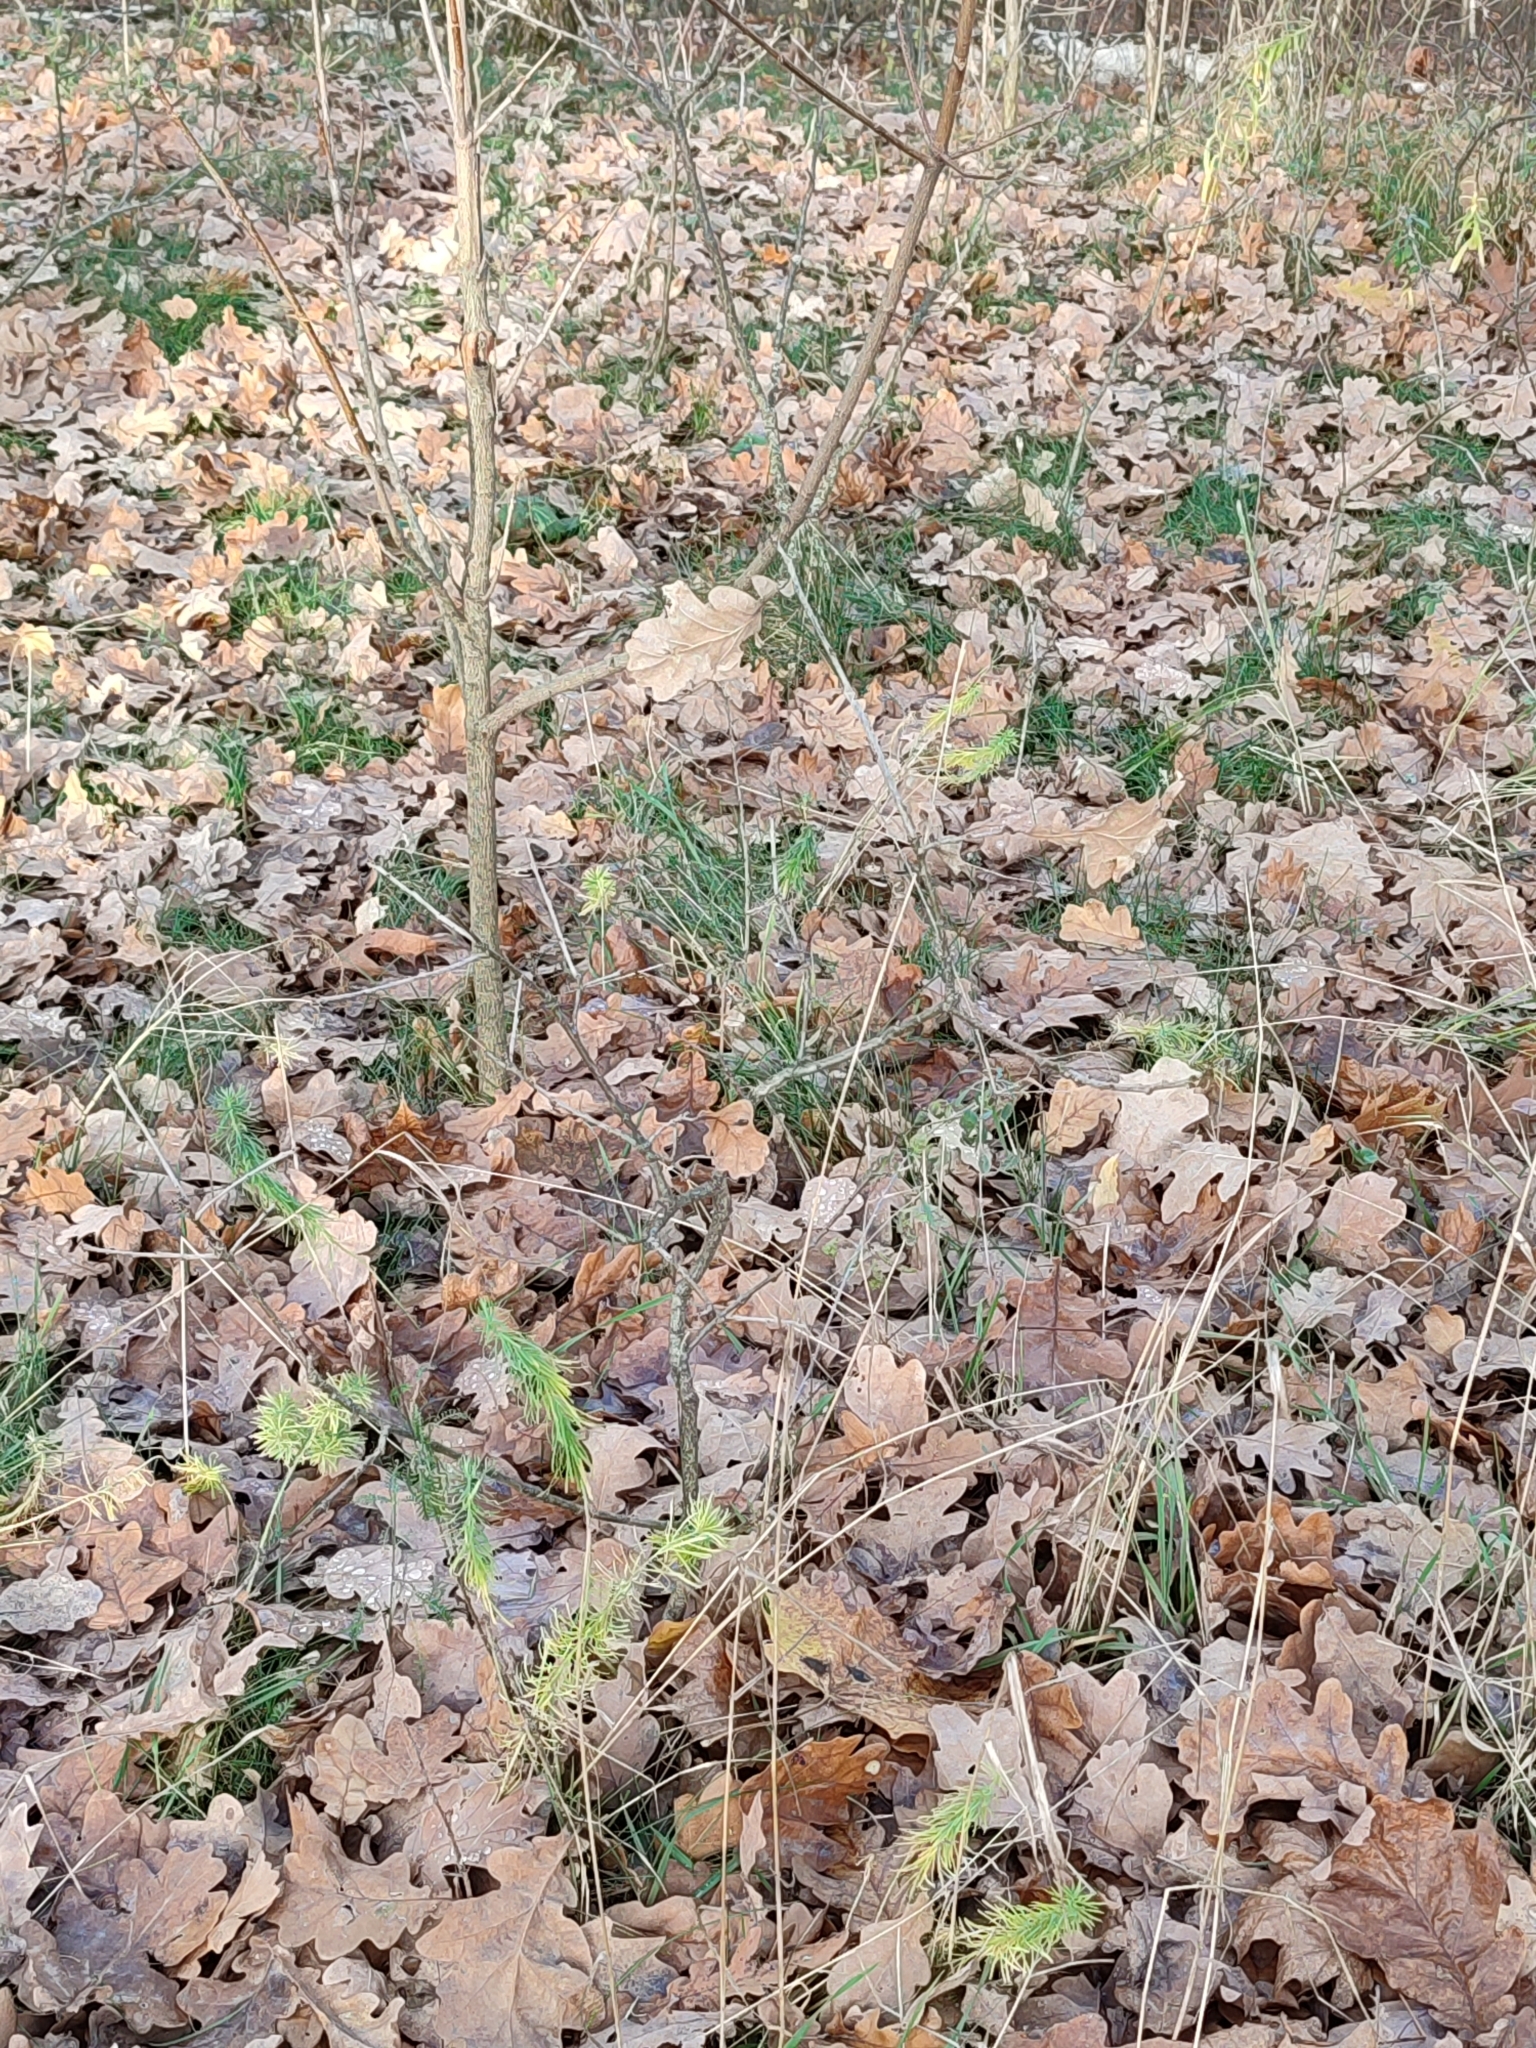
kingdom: Plantae
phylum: Tracheophyta
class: Magnoliopsida
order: Fagales
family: Fagaceae
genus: Quercus
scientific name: Quercus robur
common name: Pedunculate oak
